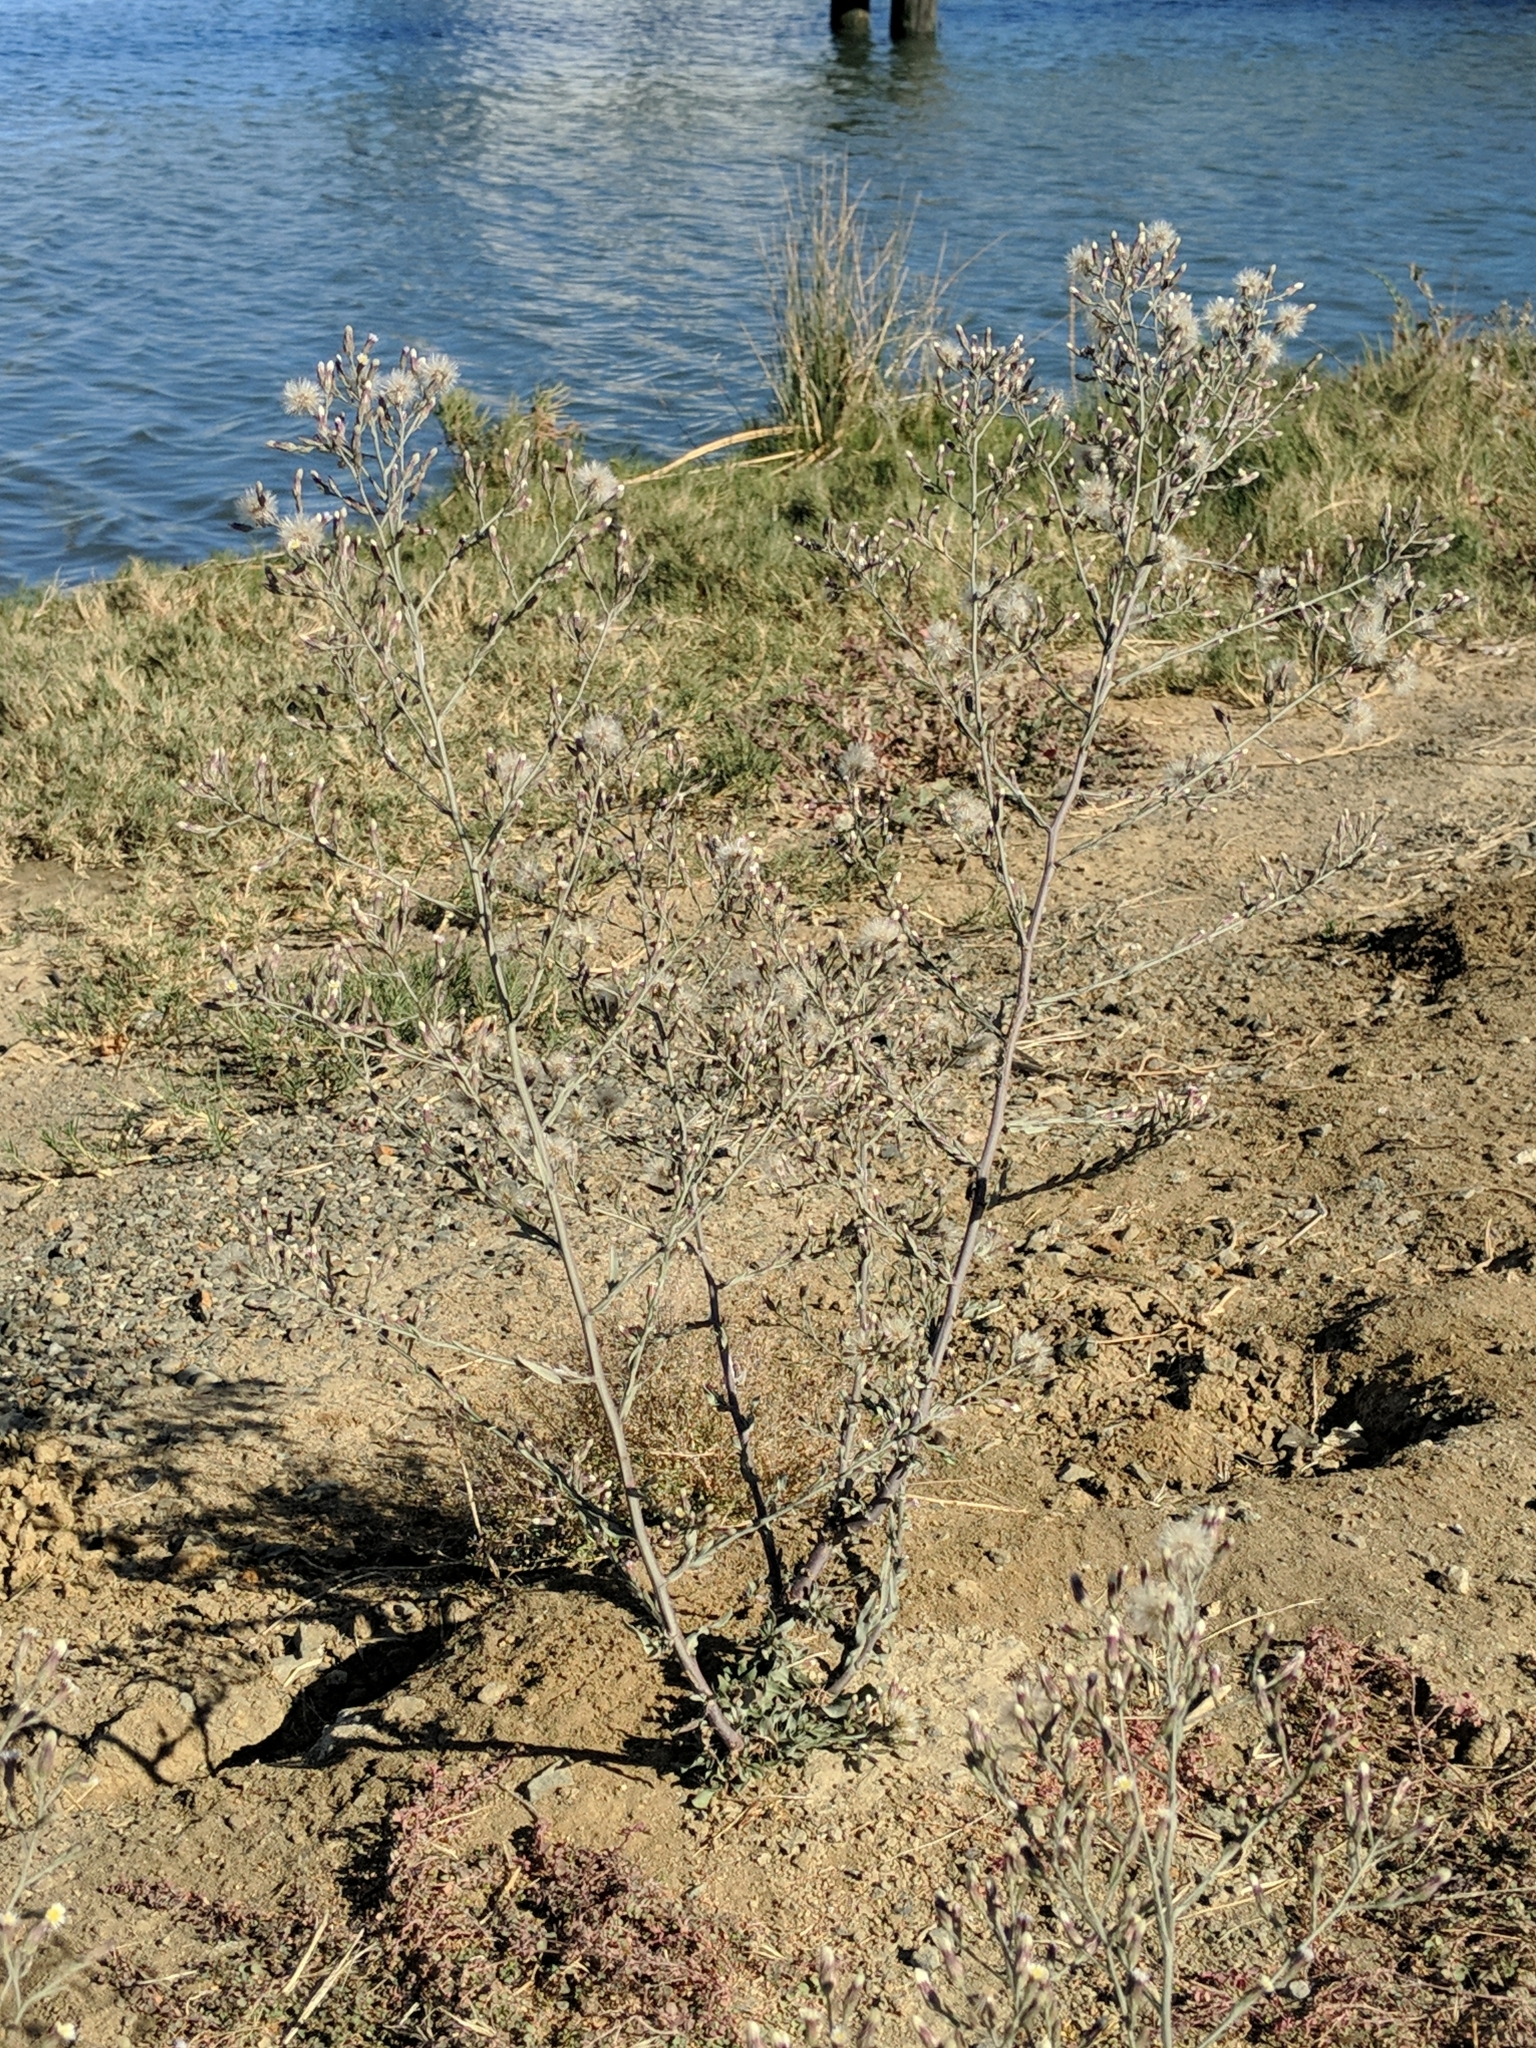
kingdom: Plantae
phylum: Tracheophyta
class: Magnoliopsida
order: Asterales
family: Asteraceae
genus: Symphyotrichum
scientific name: Symphyotrichum subulatum
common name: Annual saltmarsh aster
